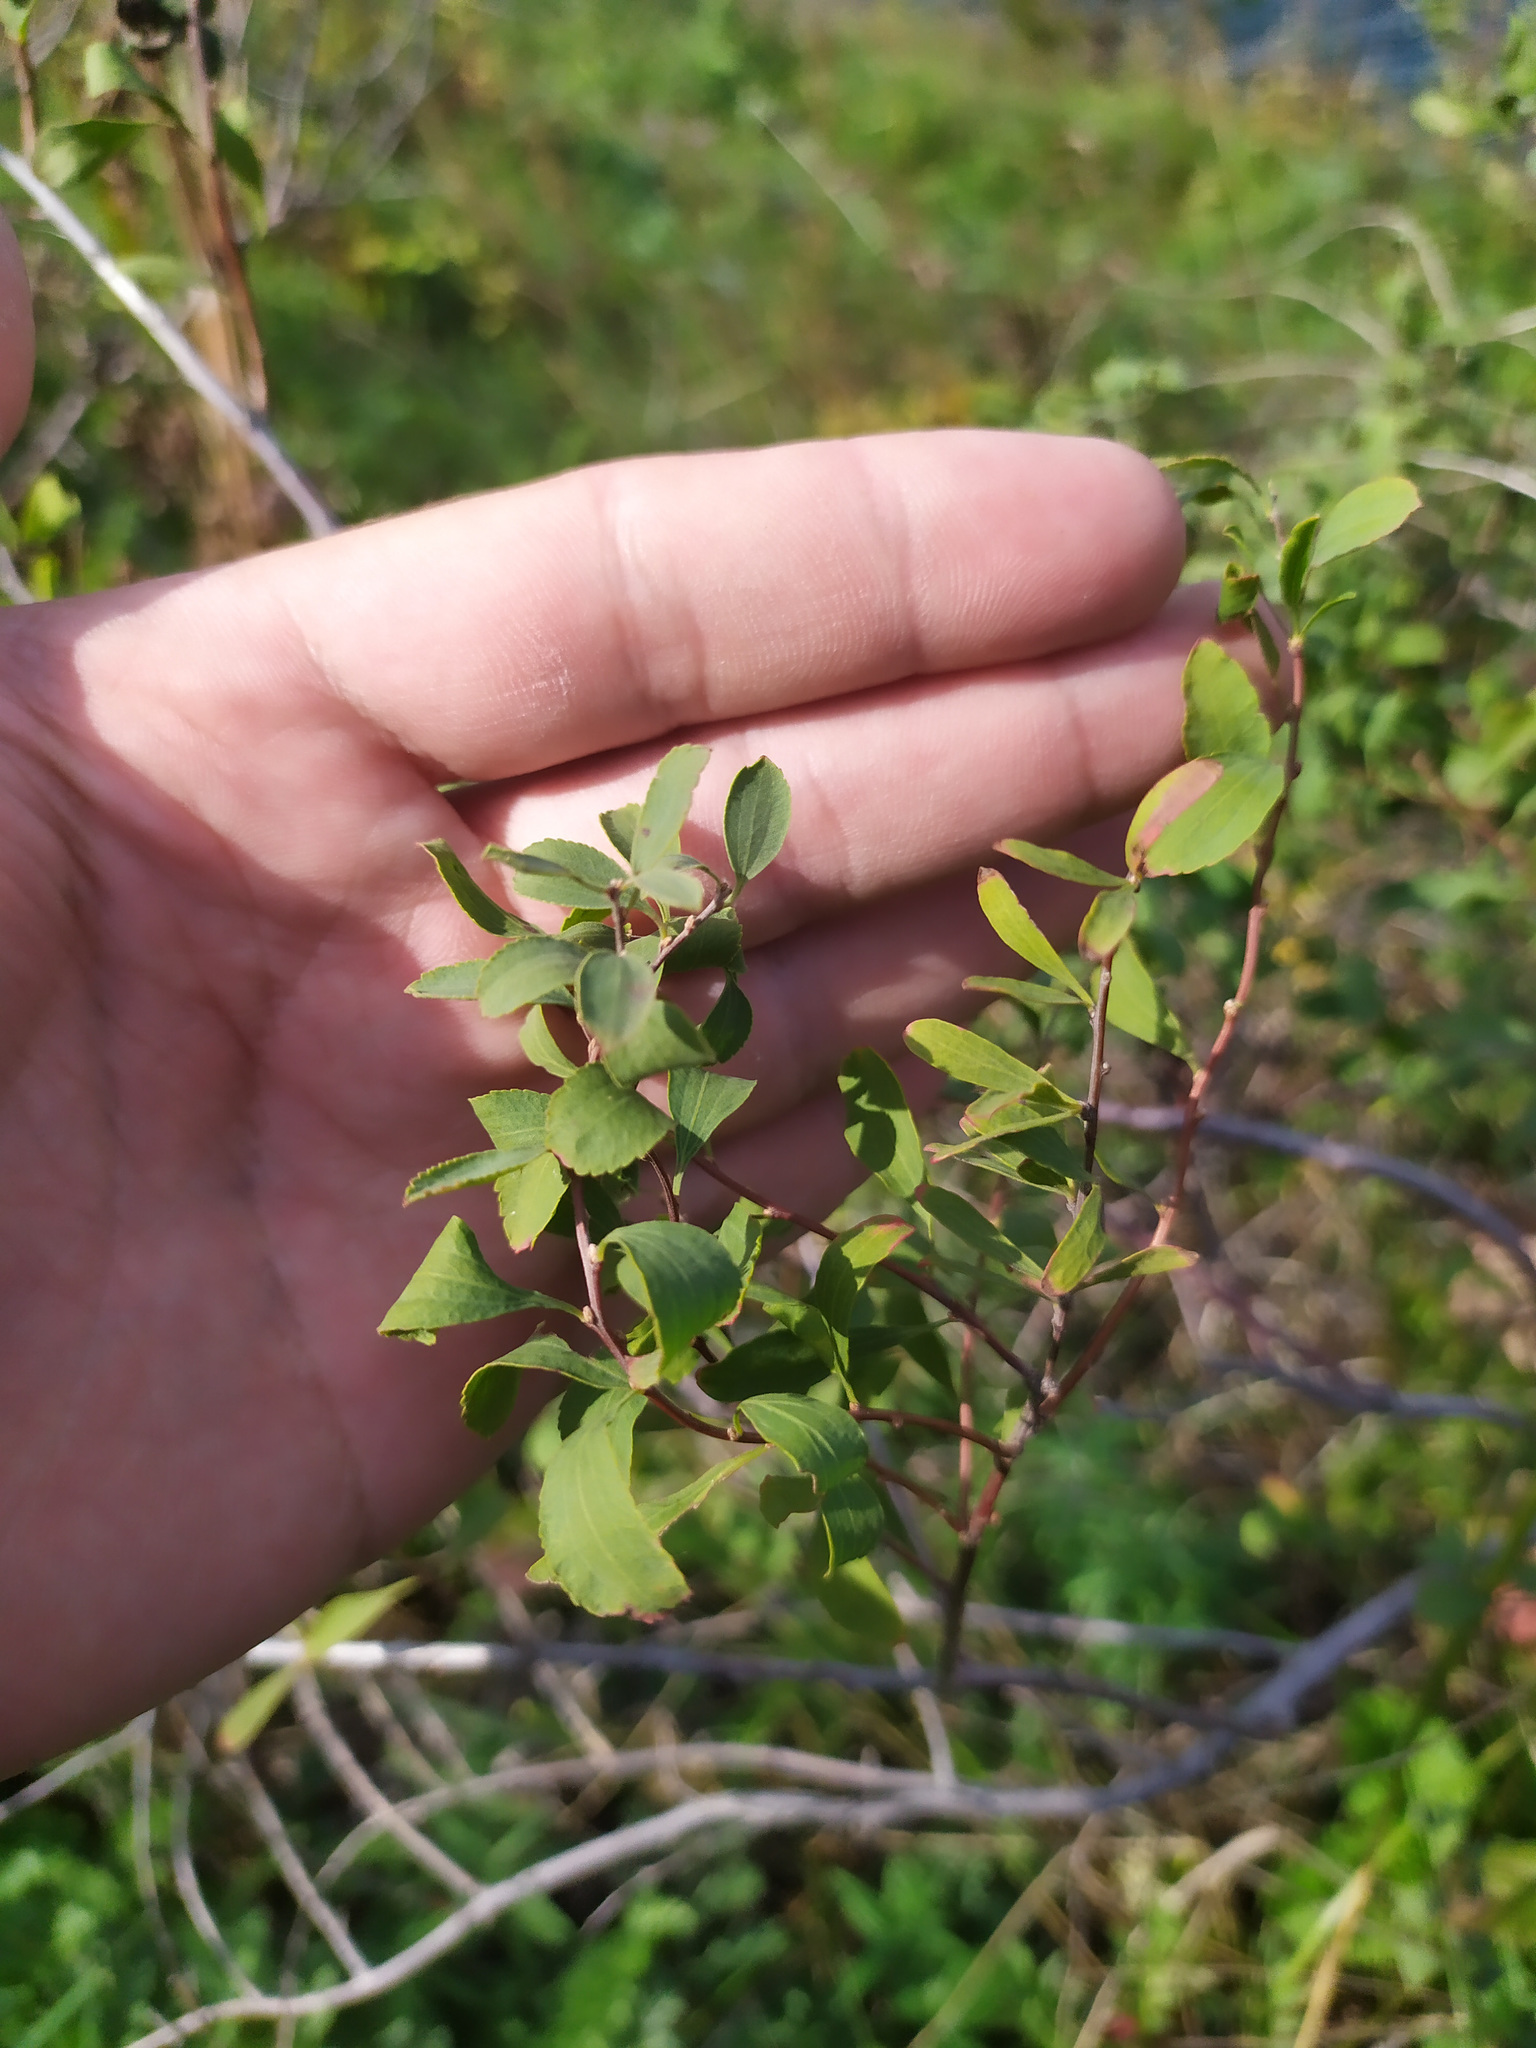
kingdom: Plantae
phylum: Tracheophyta
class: Magnoliopsida
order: Rosales
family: Rosaceae
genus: Spiraea
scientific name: Spiraea crenata
